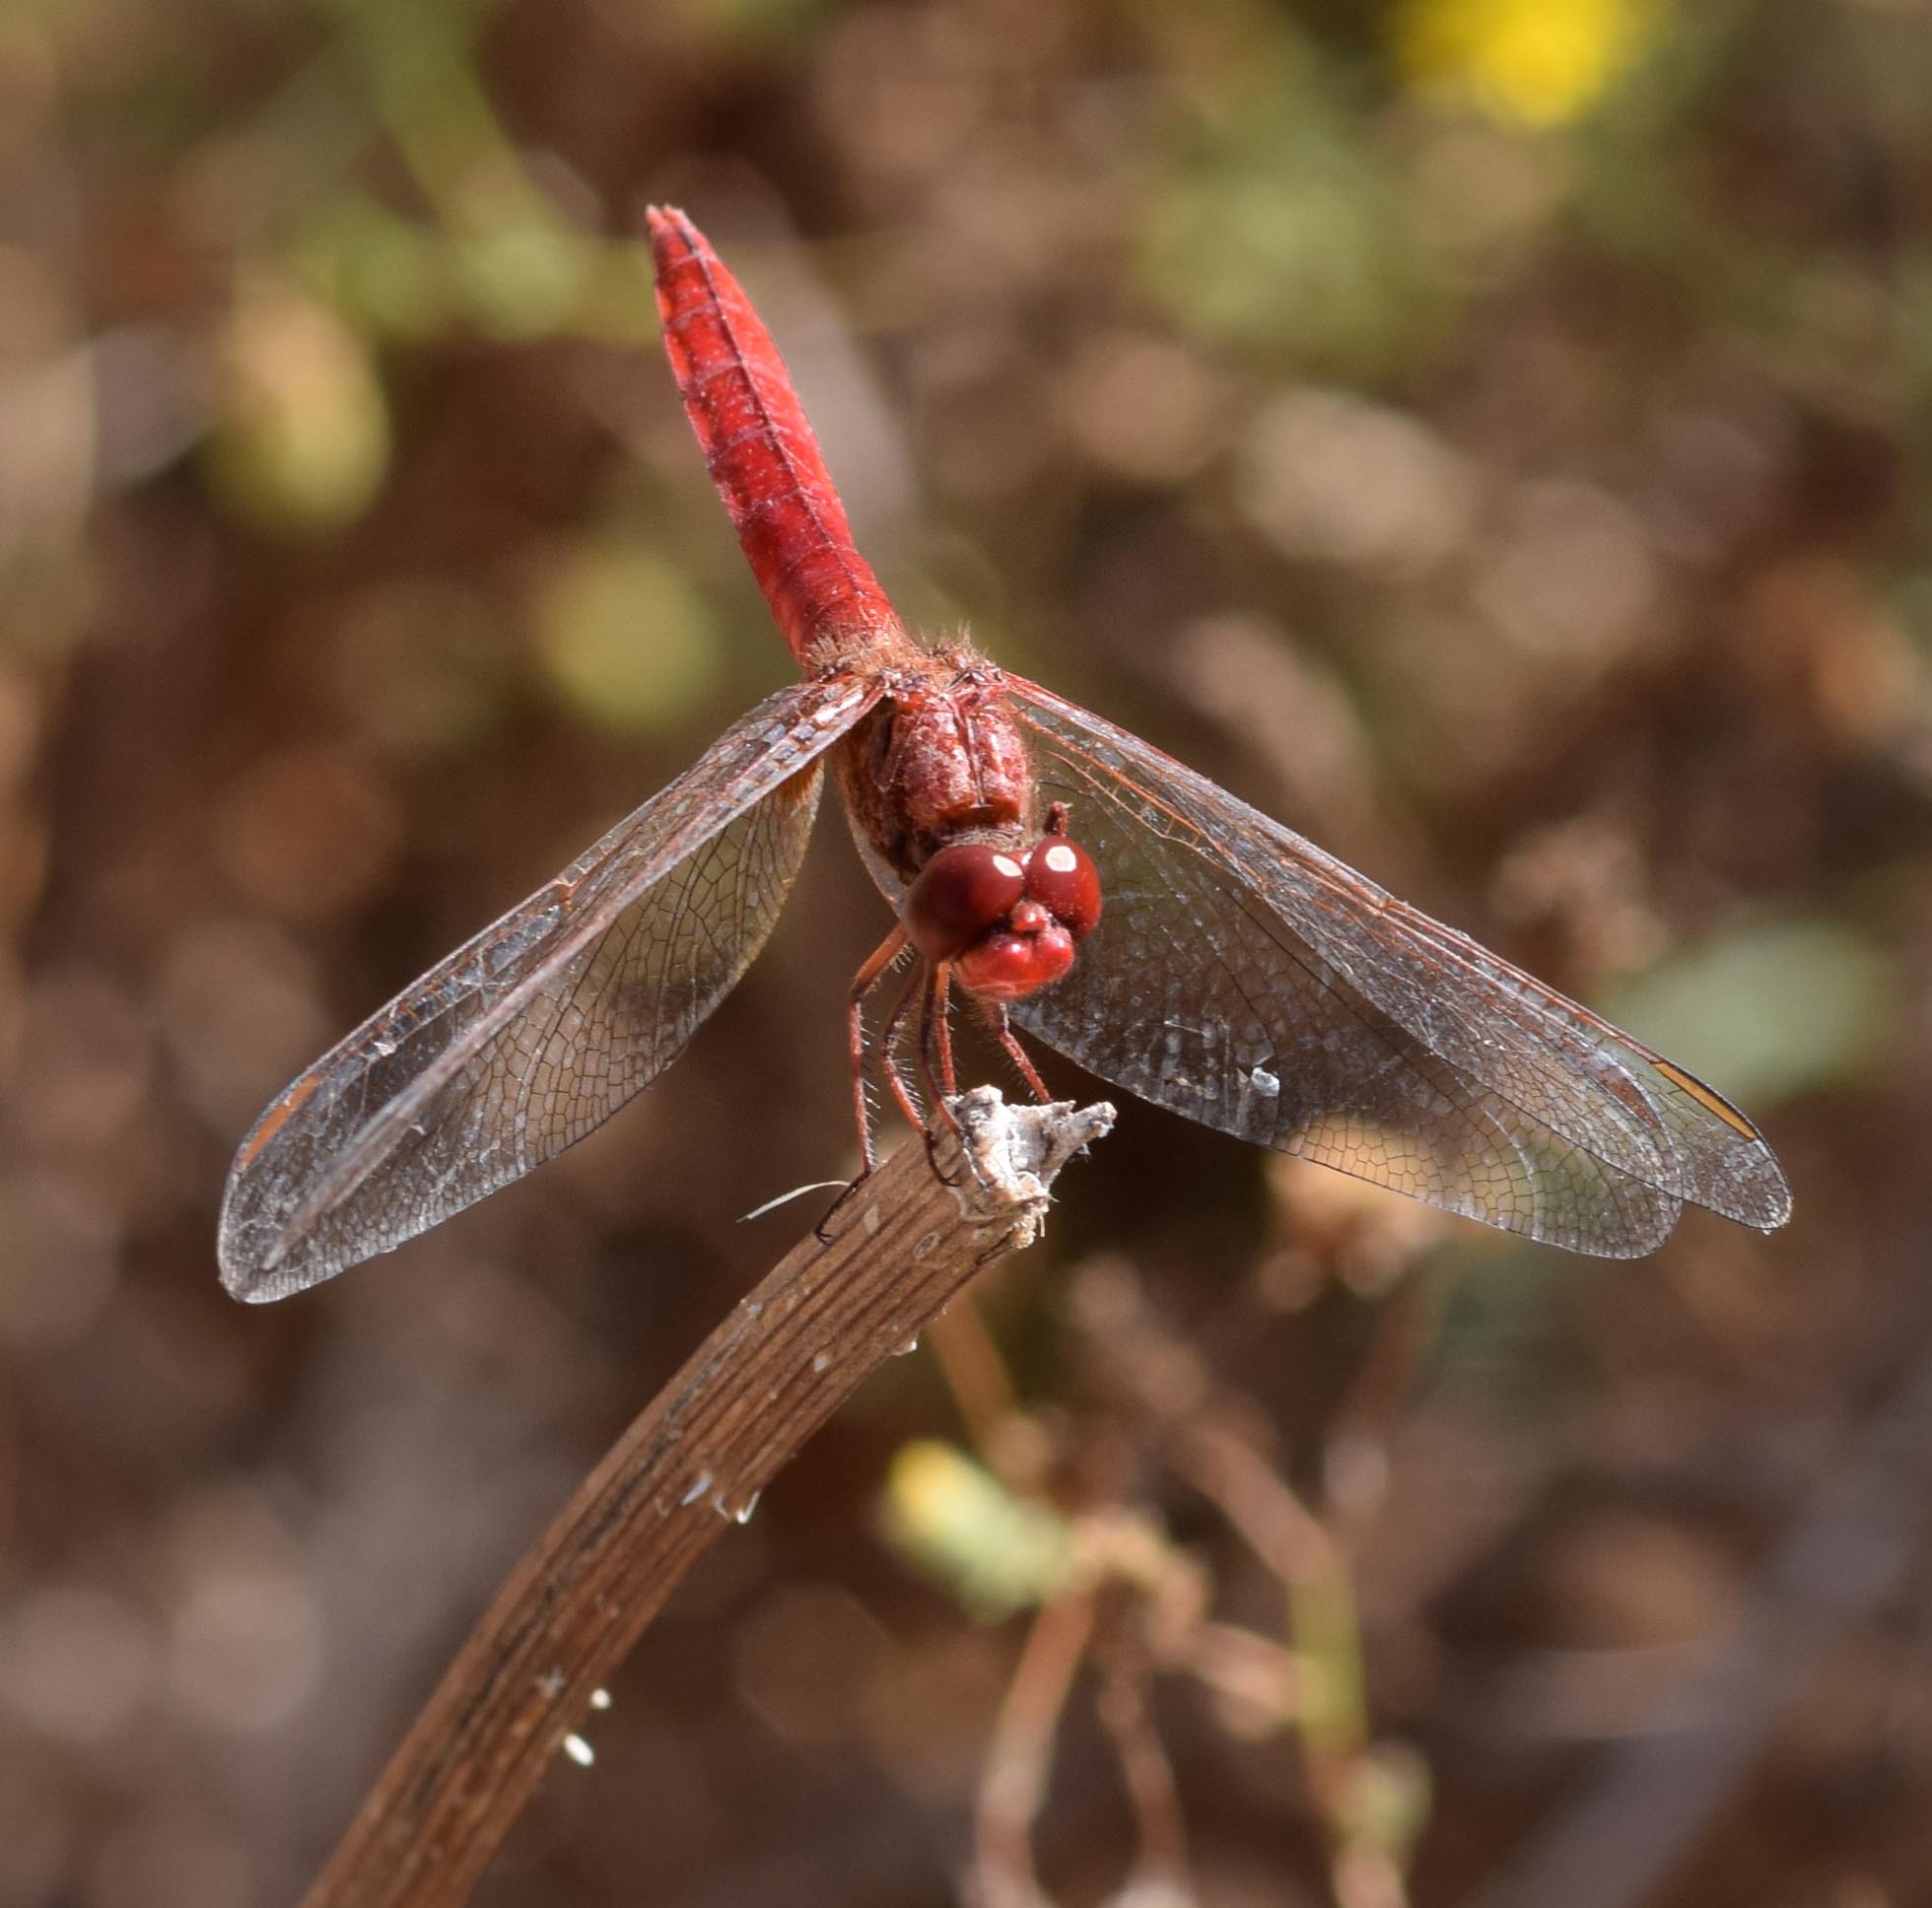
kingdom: Animalia
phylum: Arthropoda
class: Insecta
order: Odonata
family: Libellulidae
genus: Crocothemis
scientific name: Crocothemis erythraea
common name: Scarlet dragonfly
